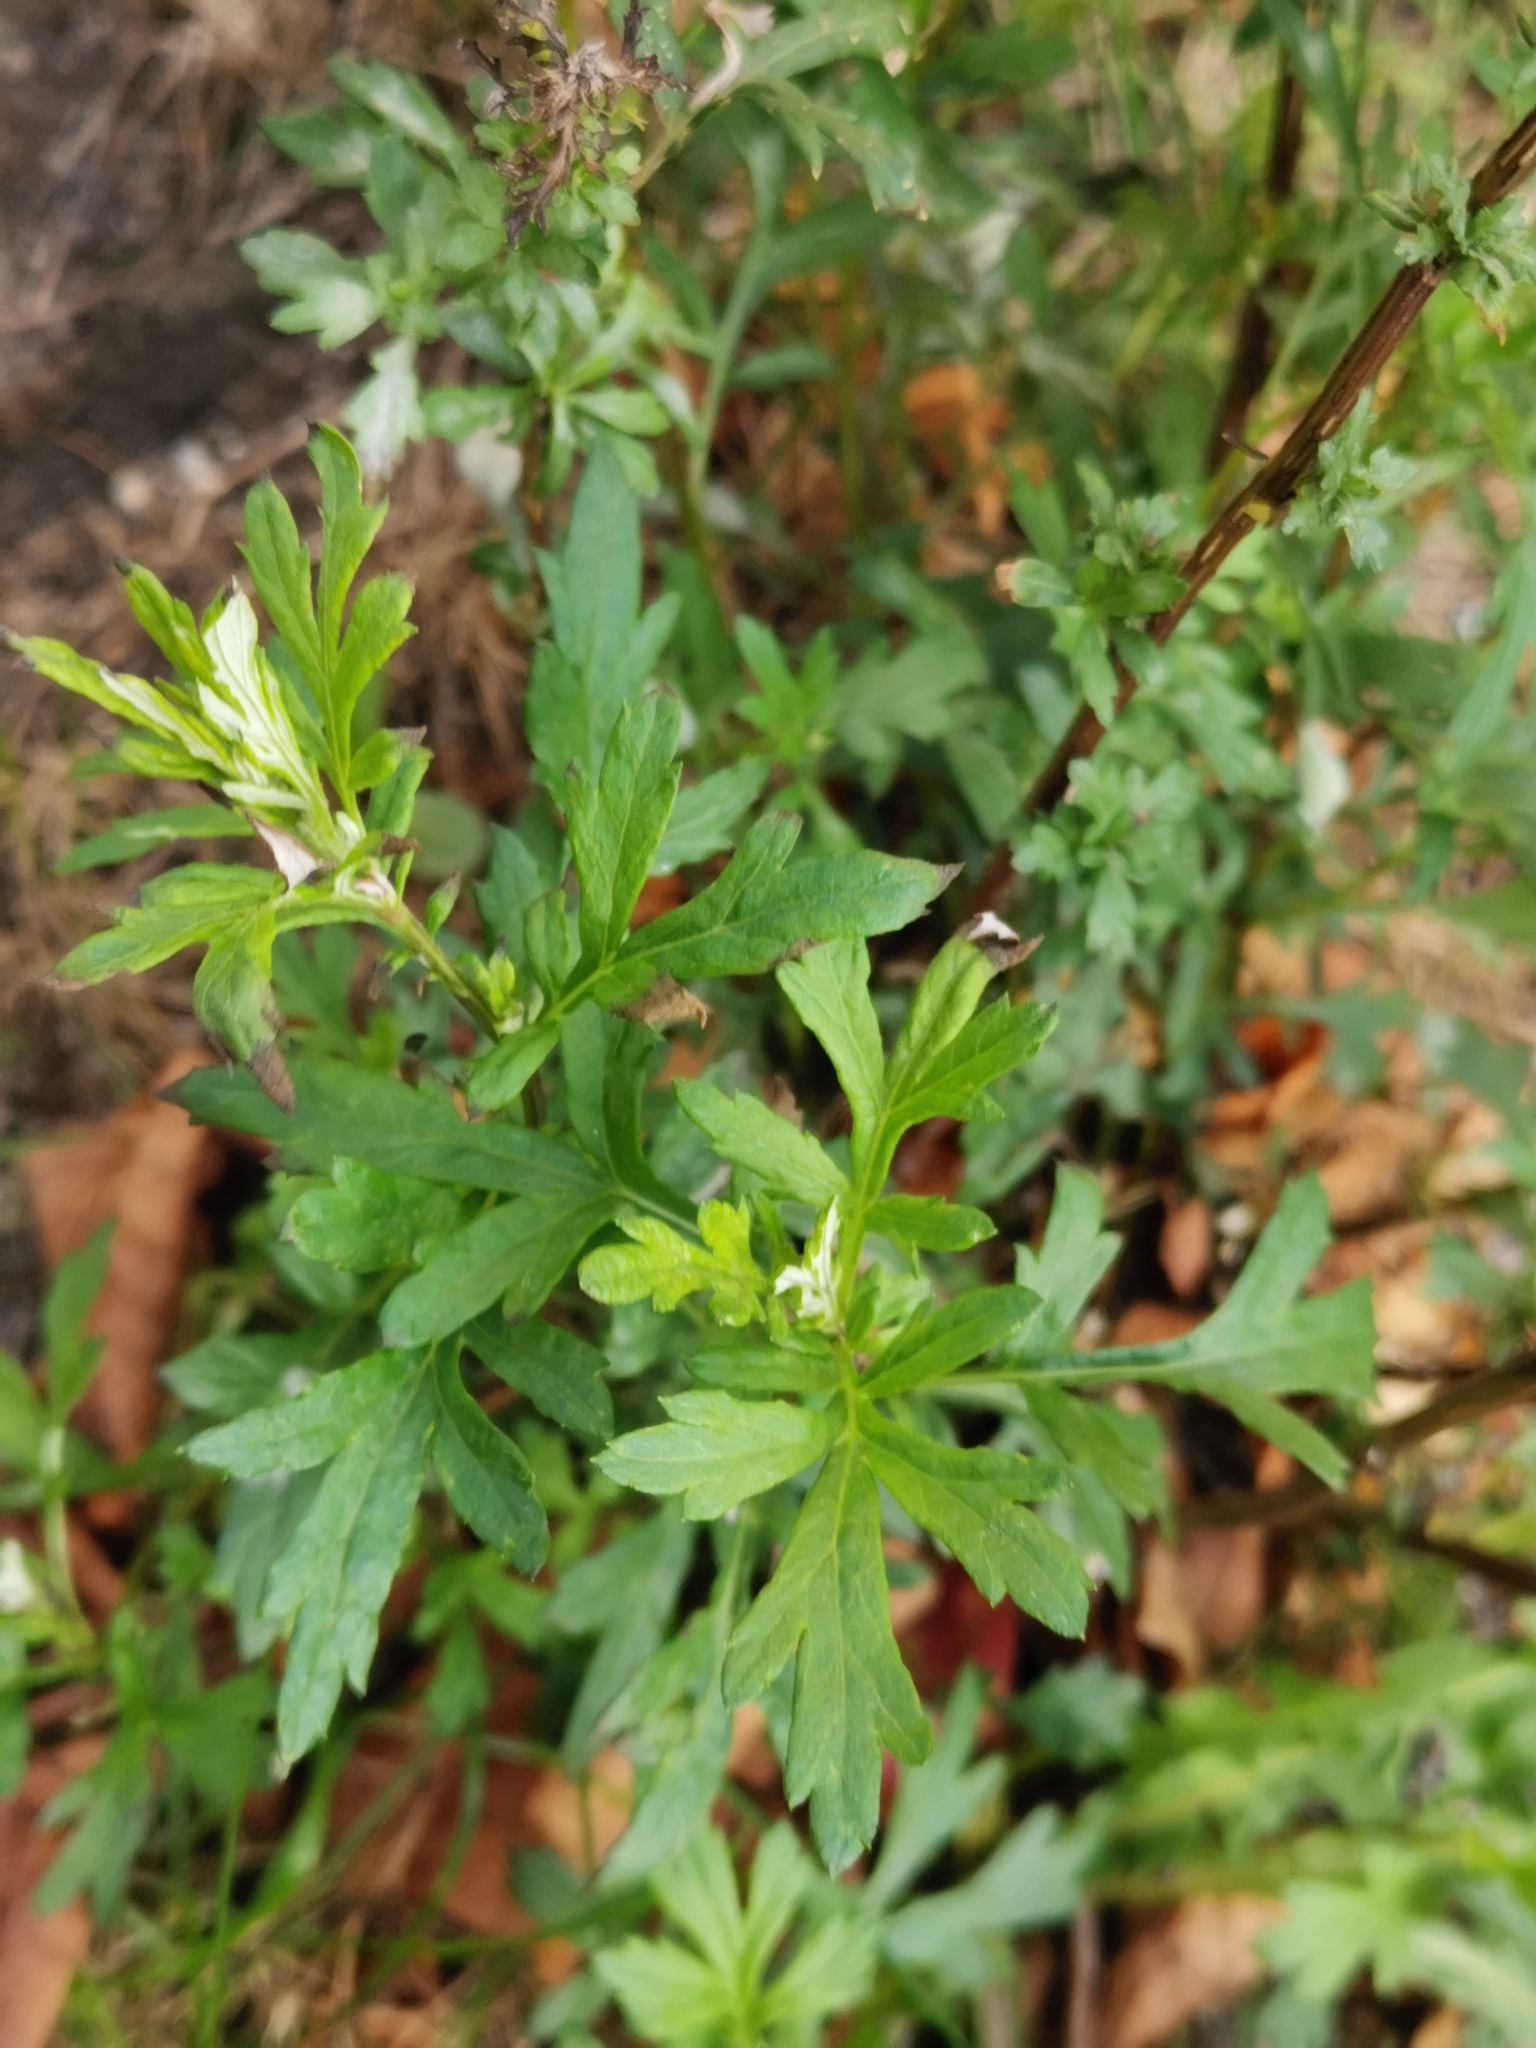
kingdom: Plantae
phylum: Tracheophyta
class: Magnoliopsida
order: Asterales
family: Asteraceae
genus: Artemisia
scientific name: Artemisia vulgaris
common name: Mugwort
